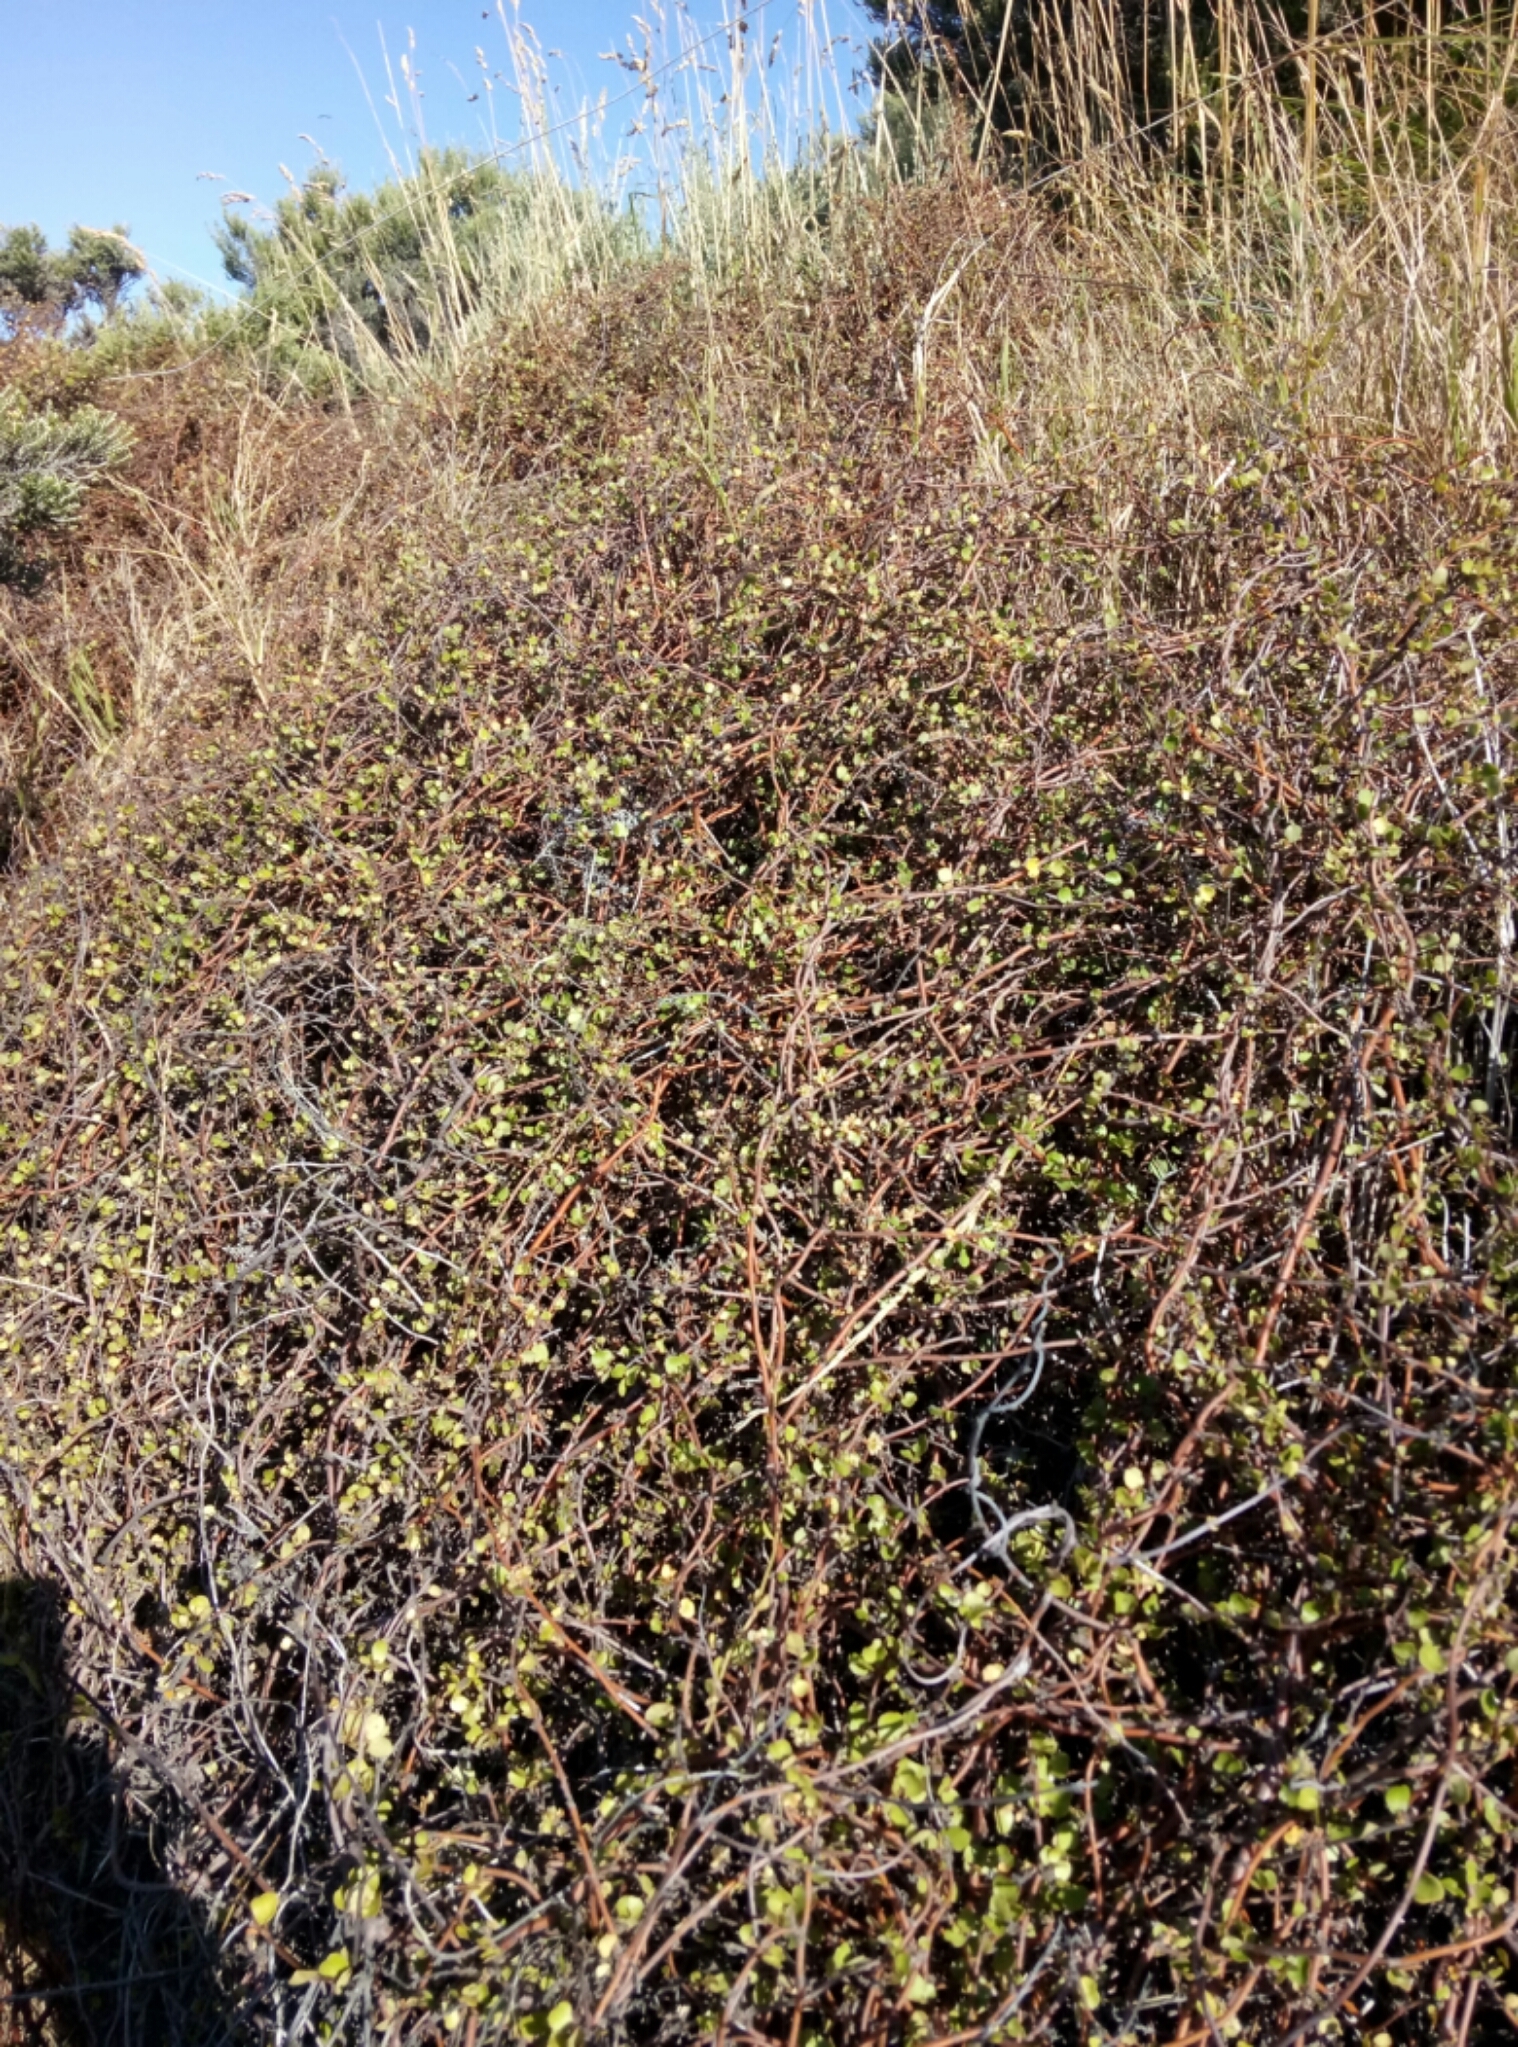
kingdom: Plantae
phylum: Tracheophyta
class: Magnoliopsida
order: Caryophyllales
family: Polygonaceae
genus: Muehlenbeckia
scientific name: Muehlenbeckia complexa
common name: Wireplant
